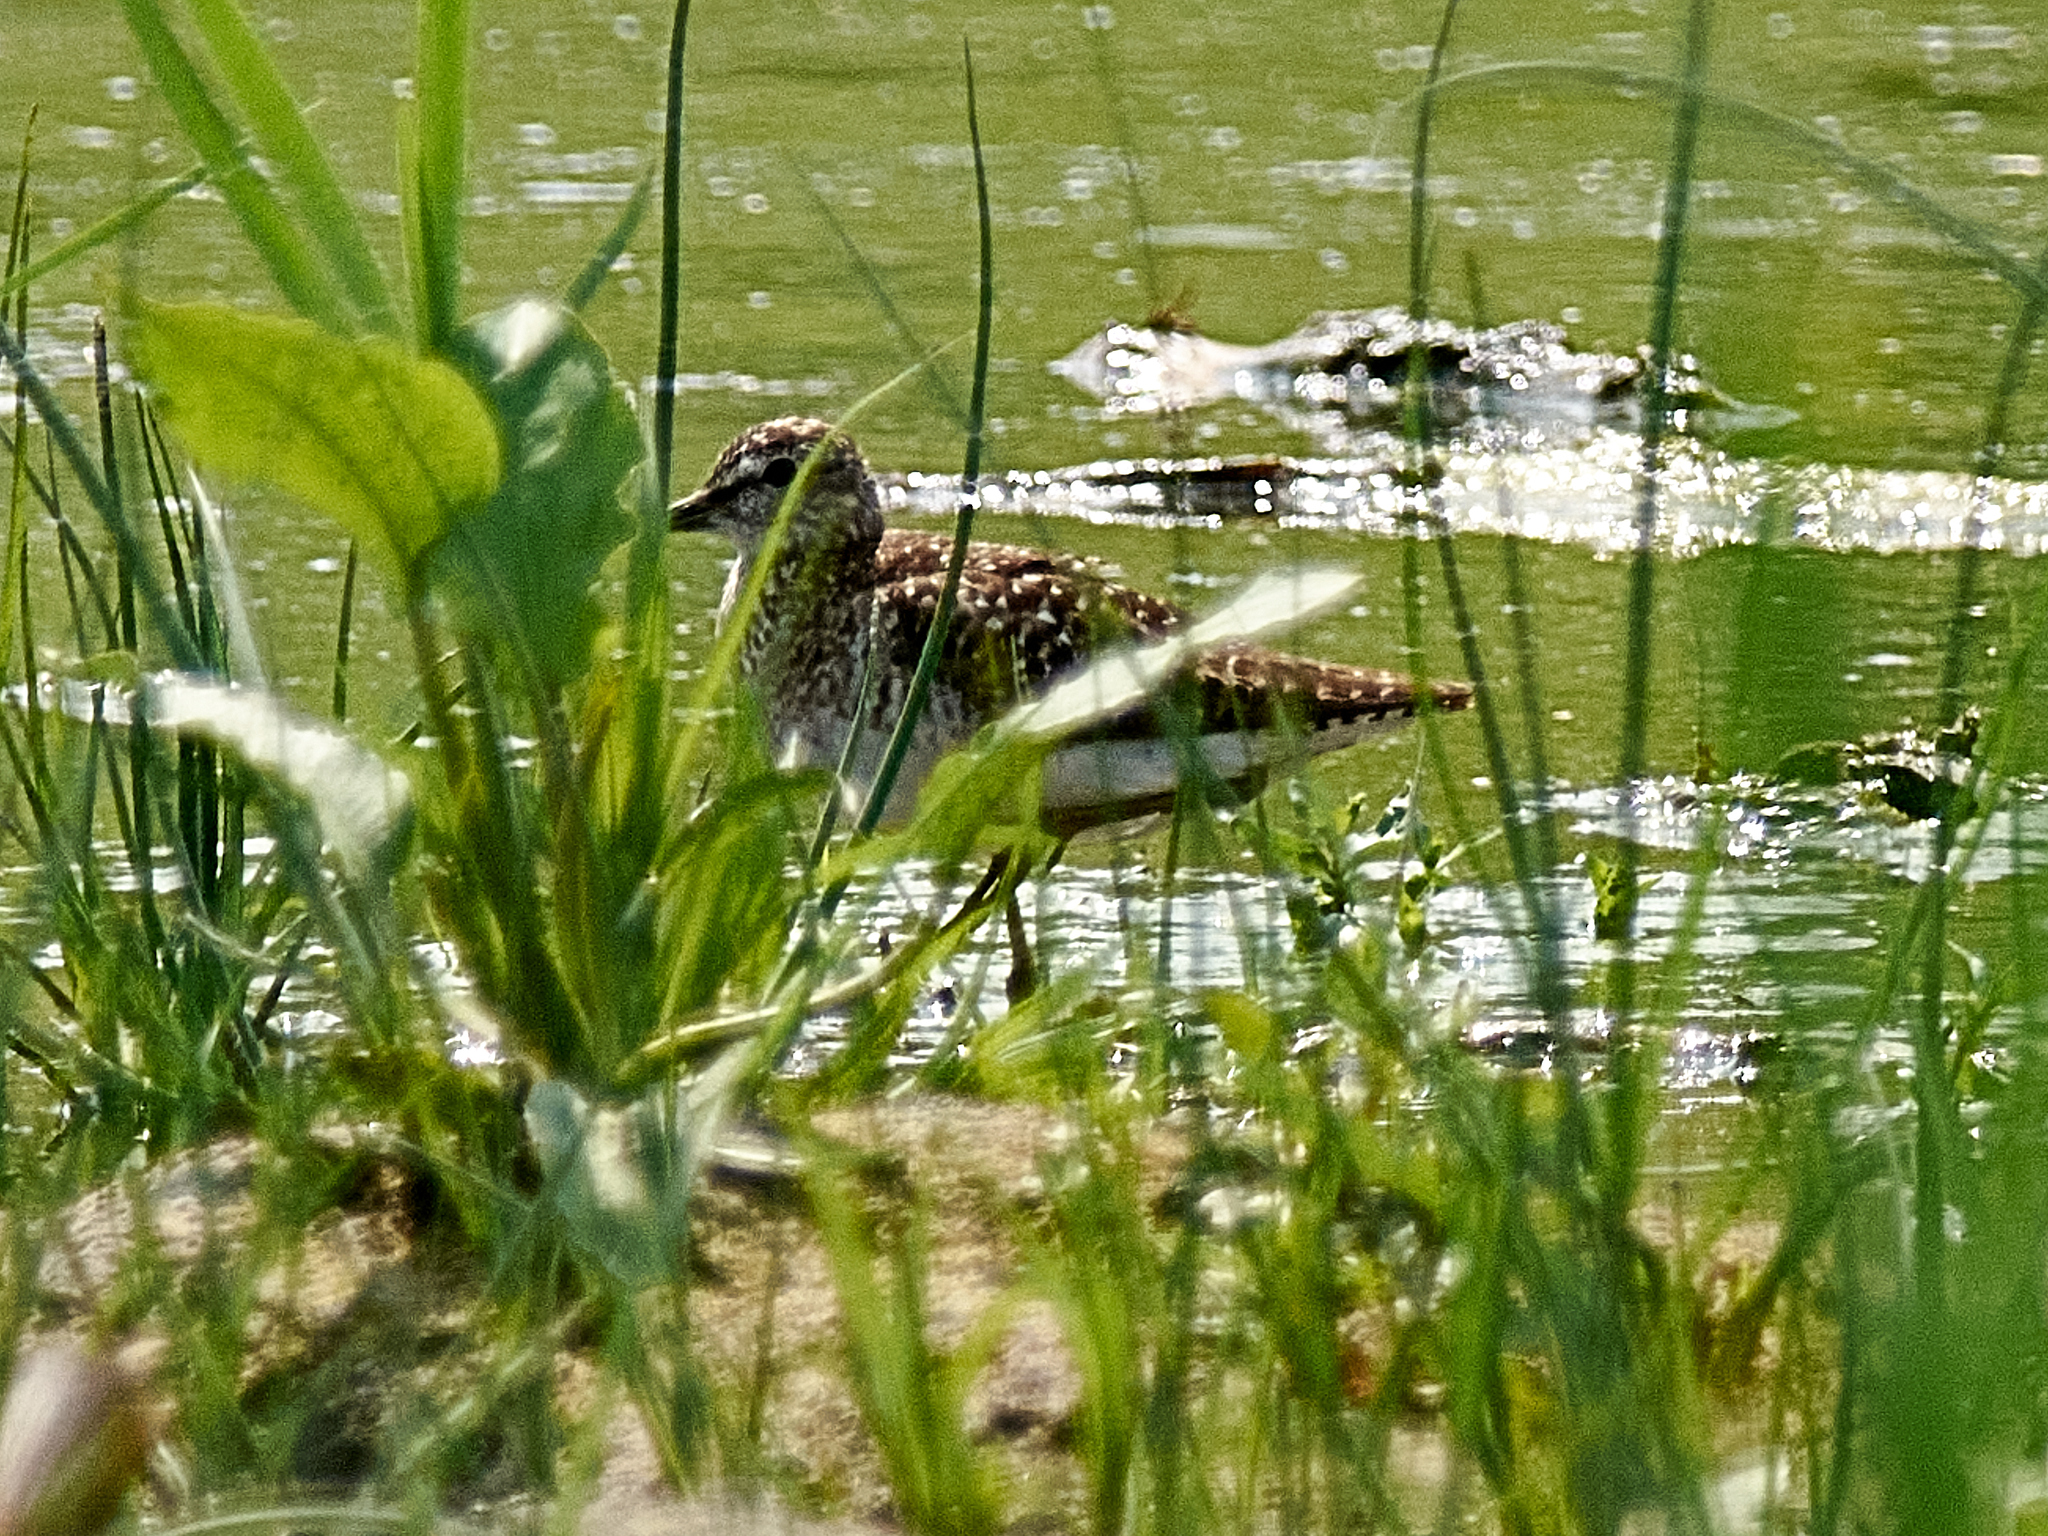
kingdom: Animalia
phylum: Chordata
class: Aves
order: Charadriiformes
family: Scolopacidae
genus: Tringa
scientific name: Tringa glareola
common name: Wood sandpiper
